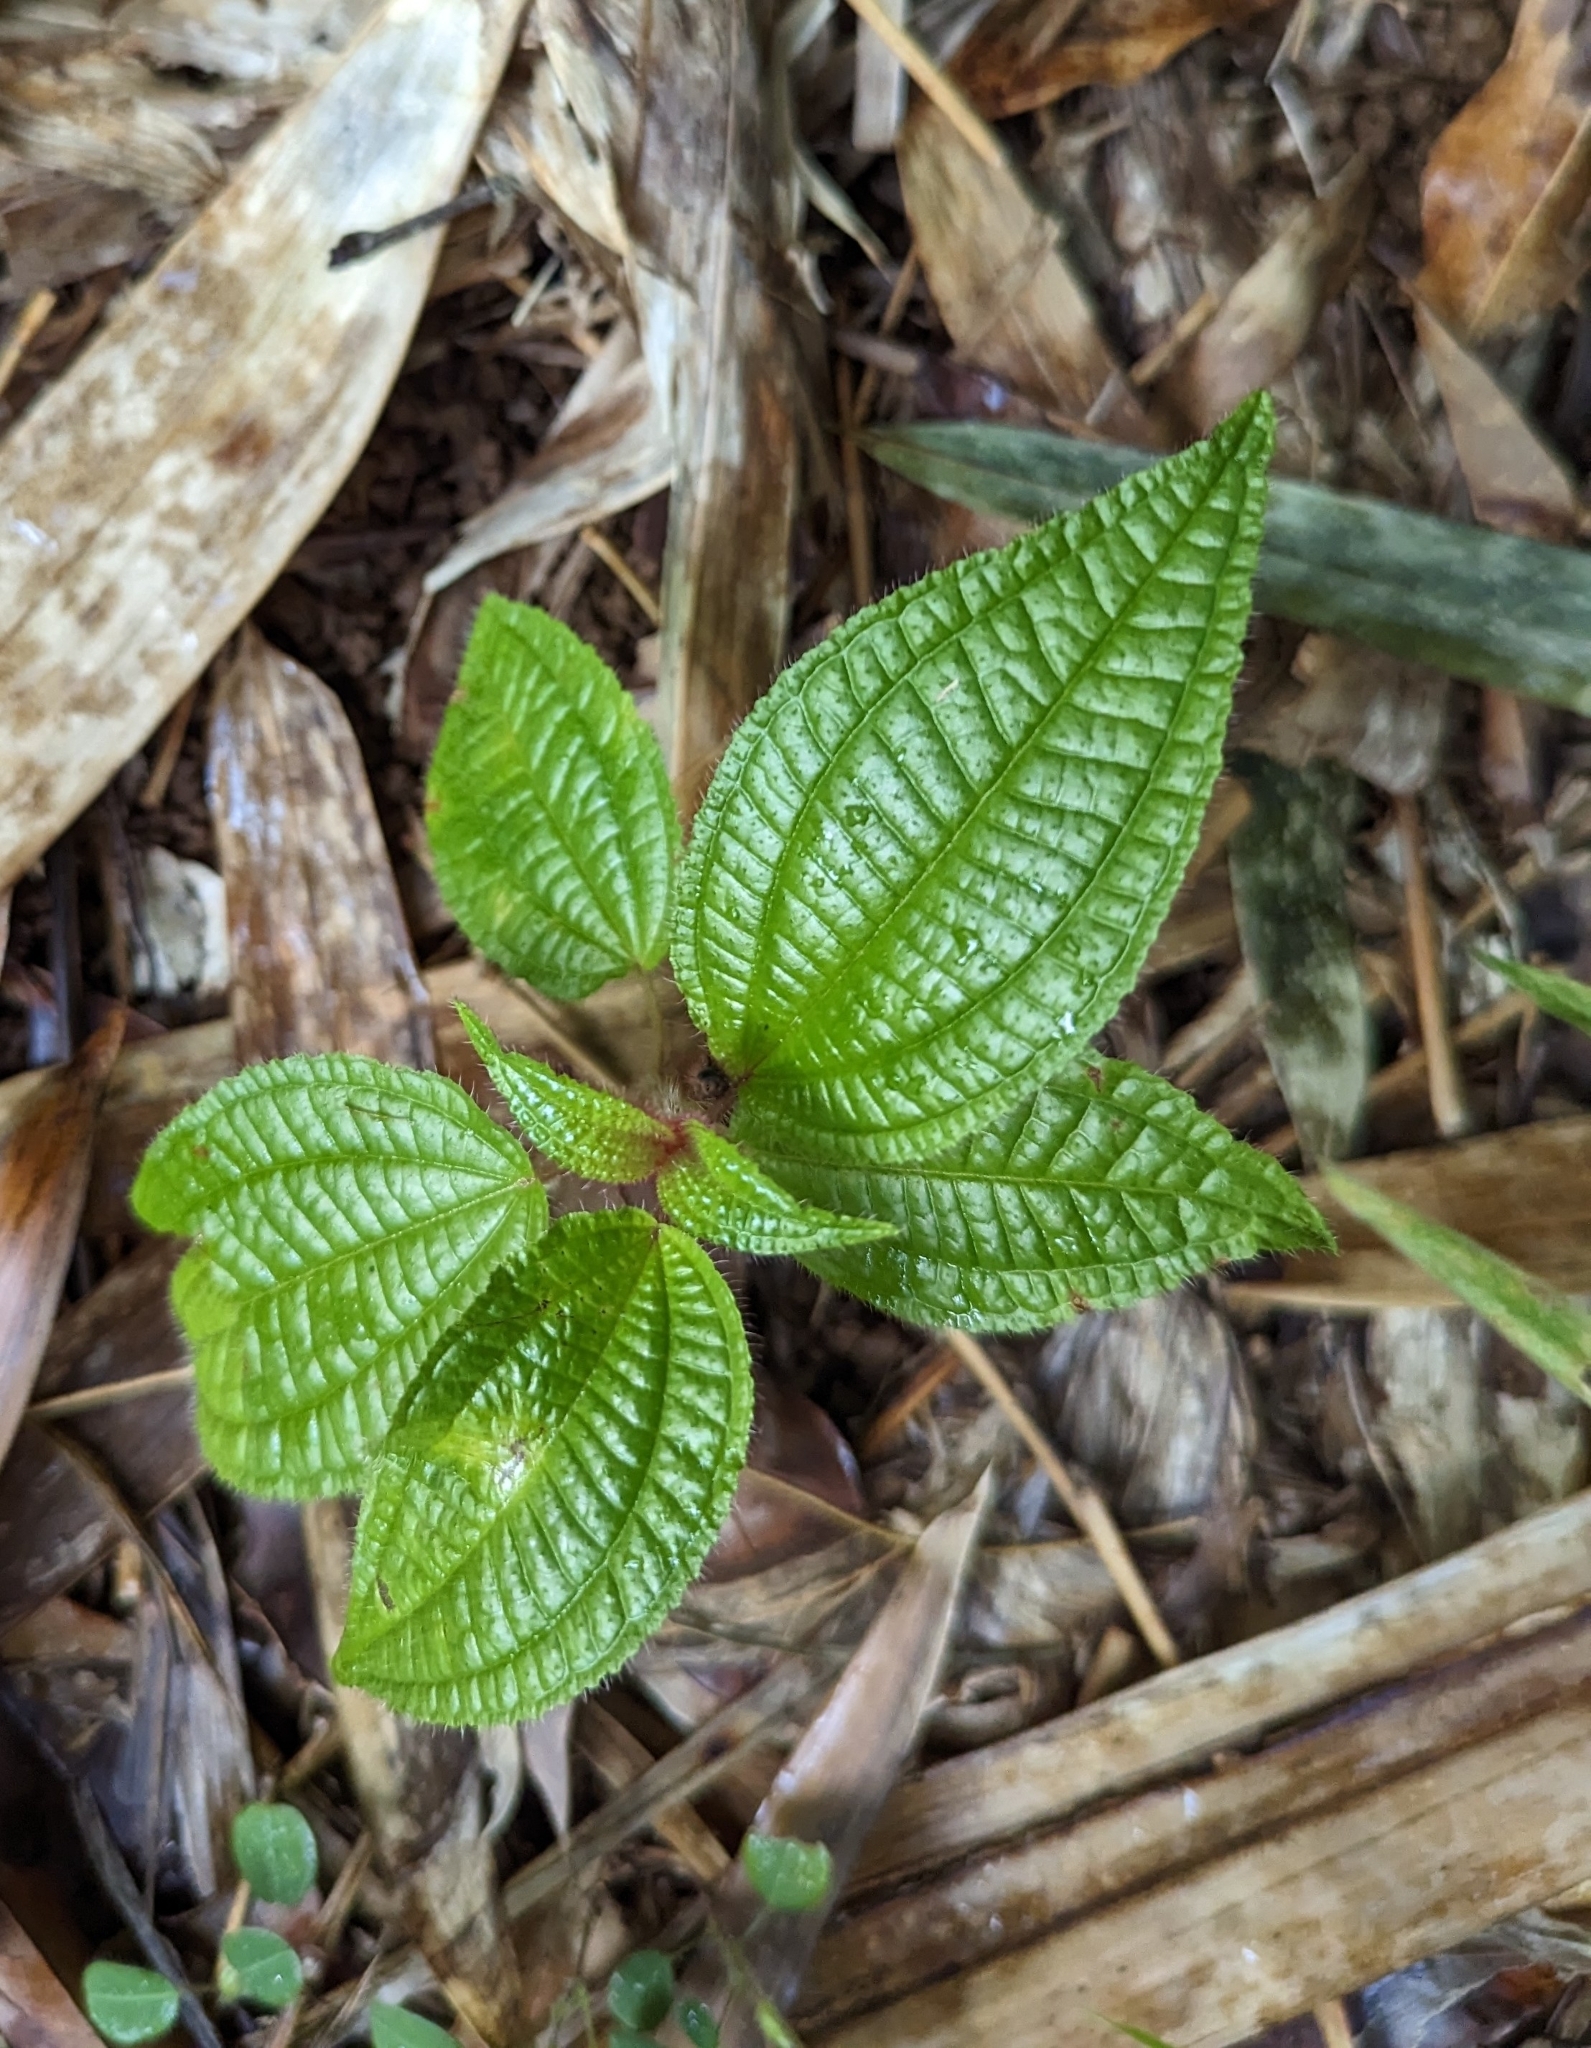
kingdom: Plantae
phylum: Tracheophyta
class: Magnoliopsida
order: Myrtales
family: Melastomataceae
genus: Miconia
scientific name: Miconia crenata
